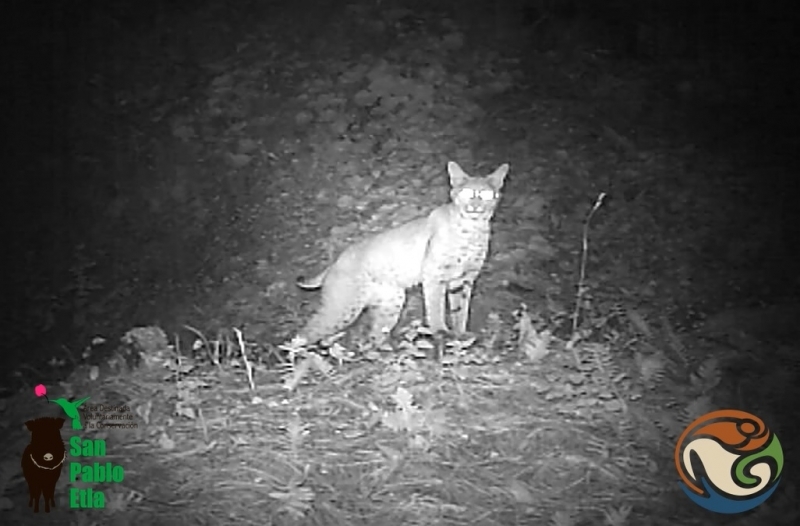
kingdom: Animalia
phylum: Chordata
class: Mammalia
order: Carnivora
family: Felidae
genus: Lynx
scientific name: Lynx rufus
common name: Bobcat
